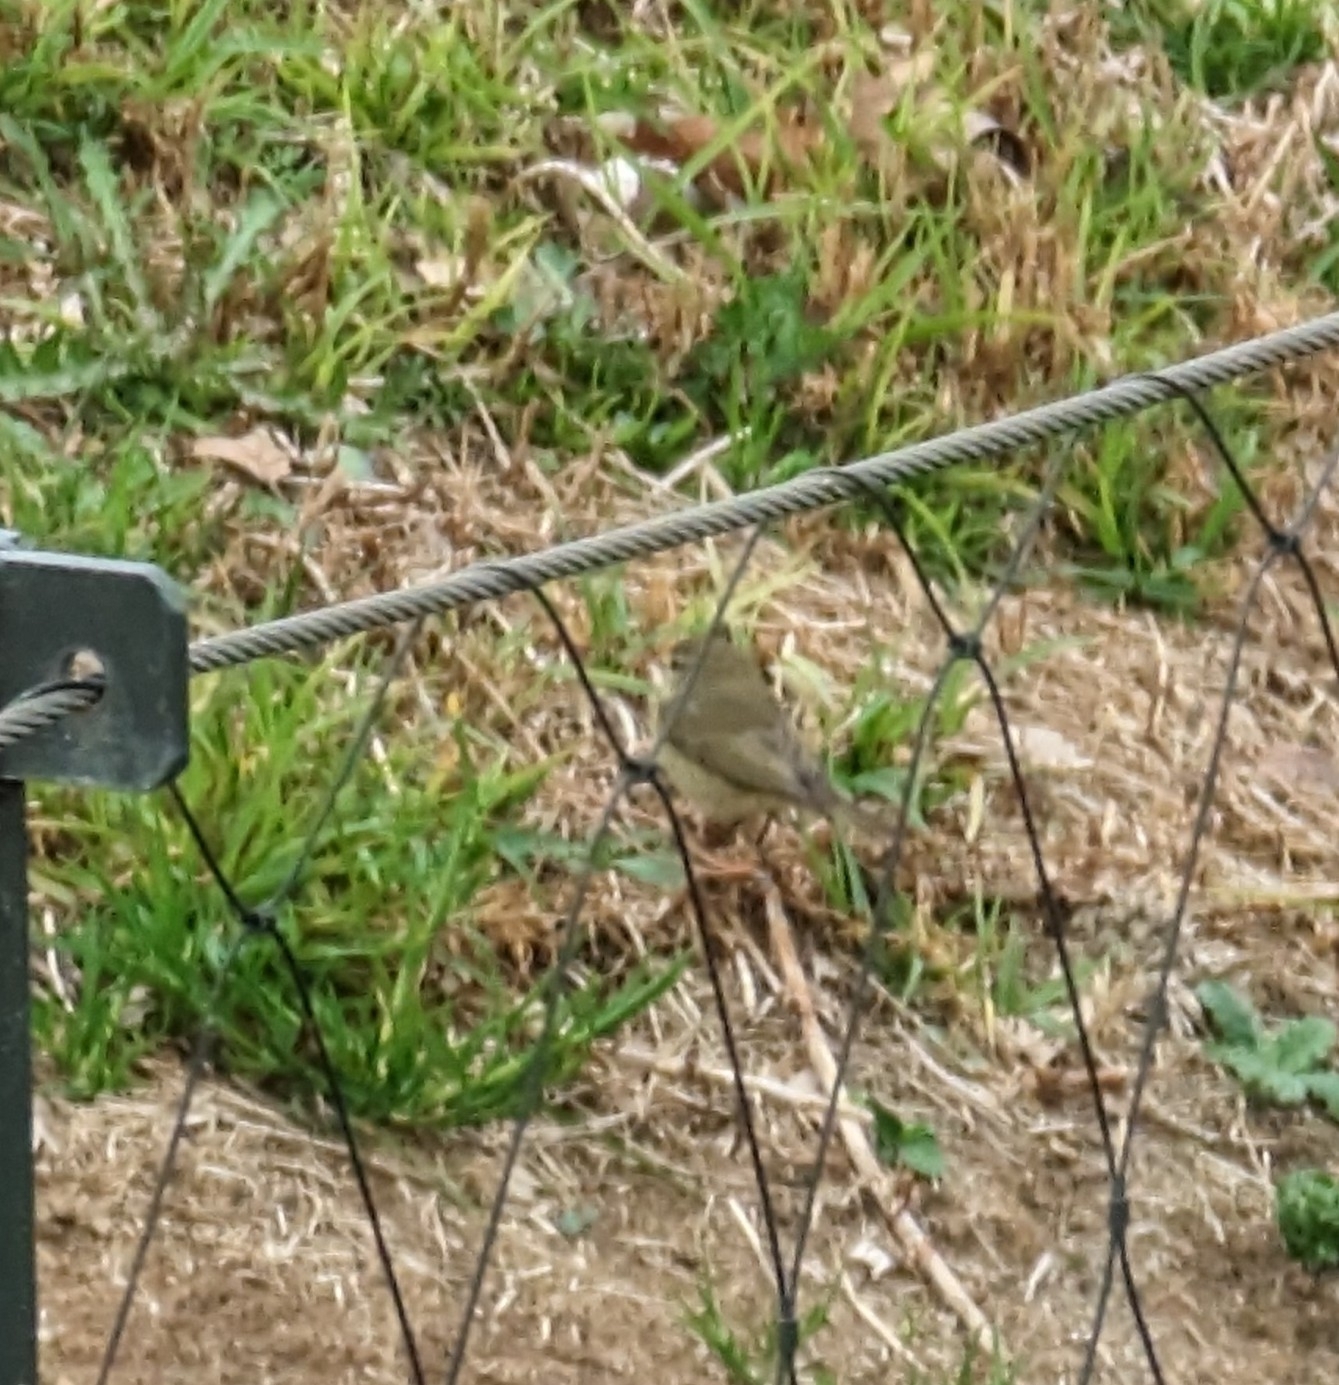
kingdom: Animalia
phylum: Chordata
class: Aves
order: Passeriformes
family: Phylloscopidae
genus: Phylloscopus
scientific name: Phylloscopus collybita
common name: Common chiffchaff
